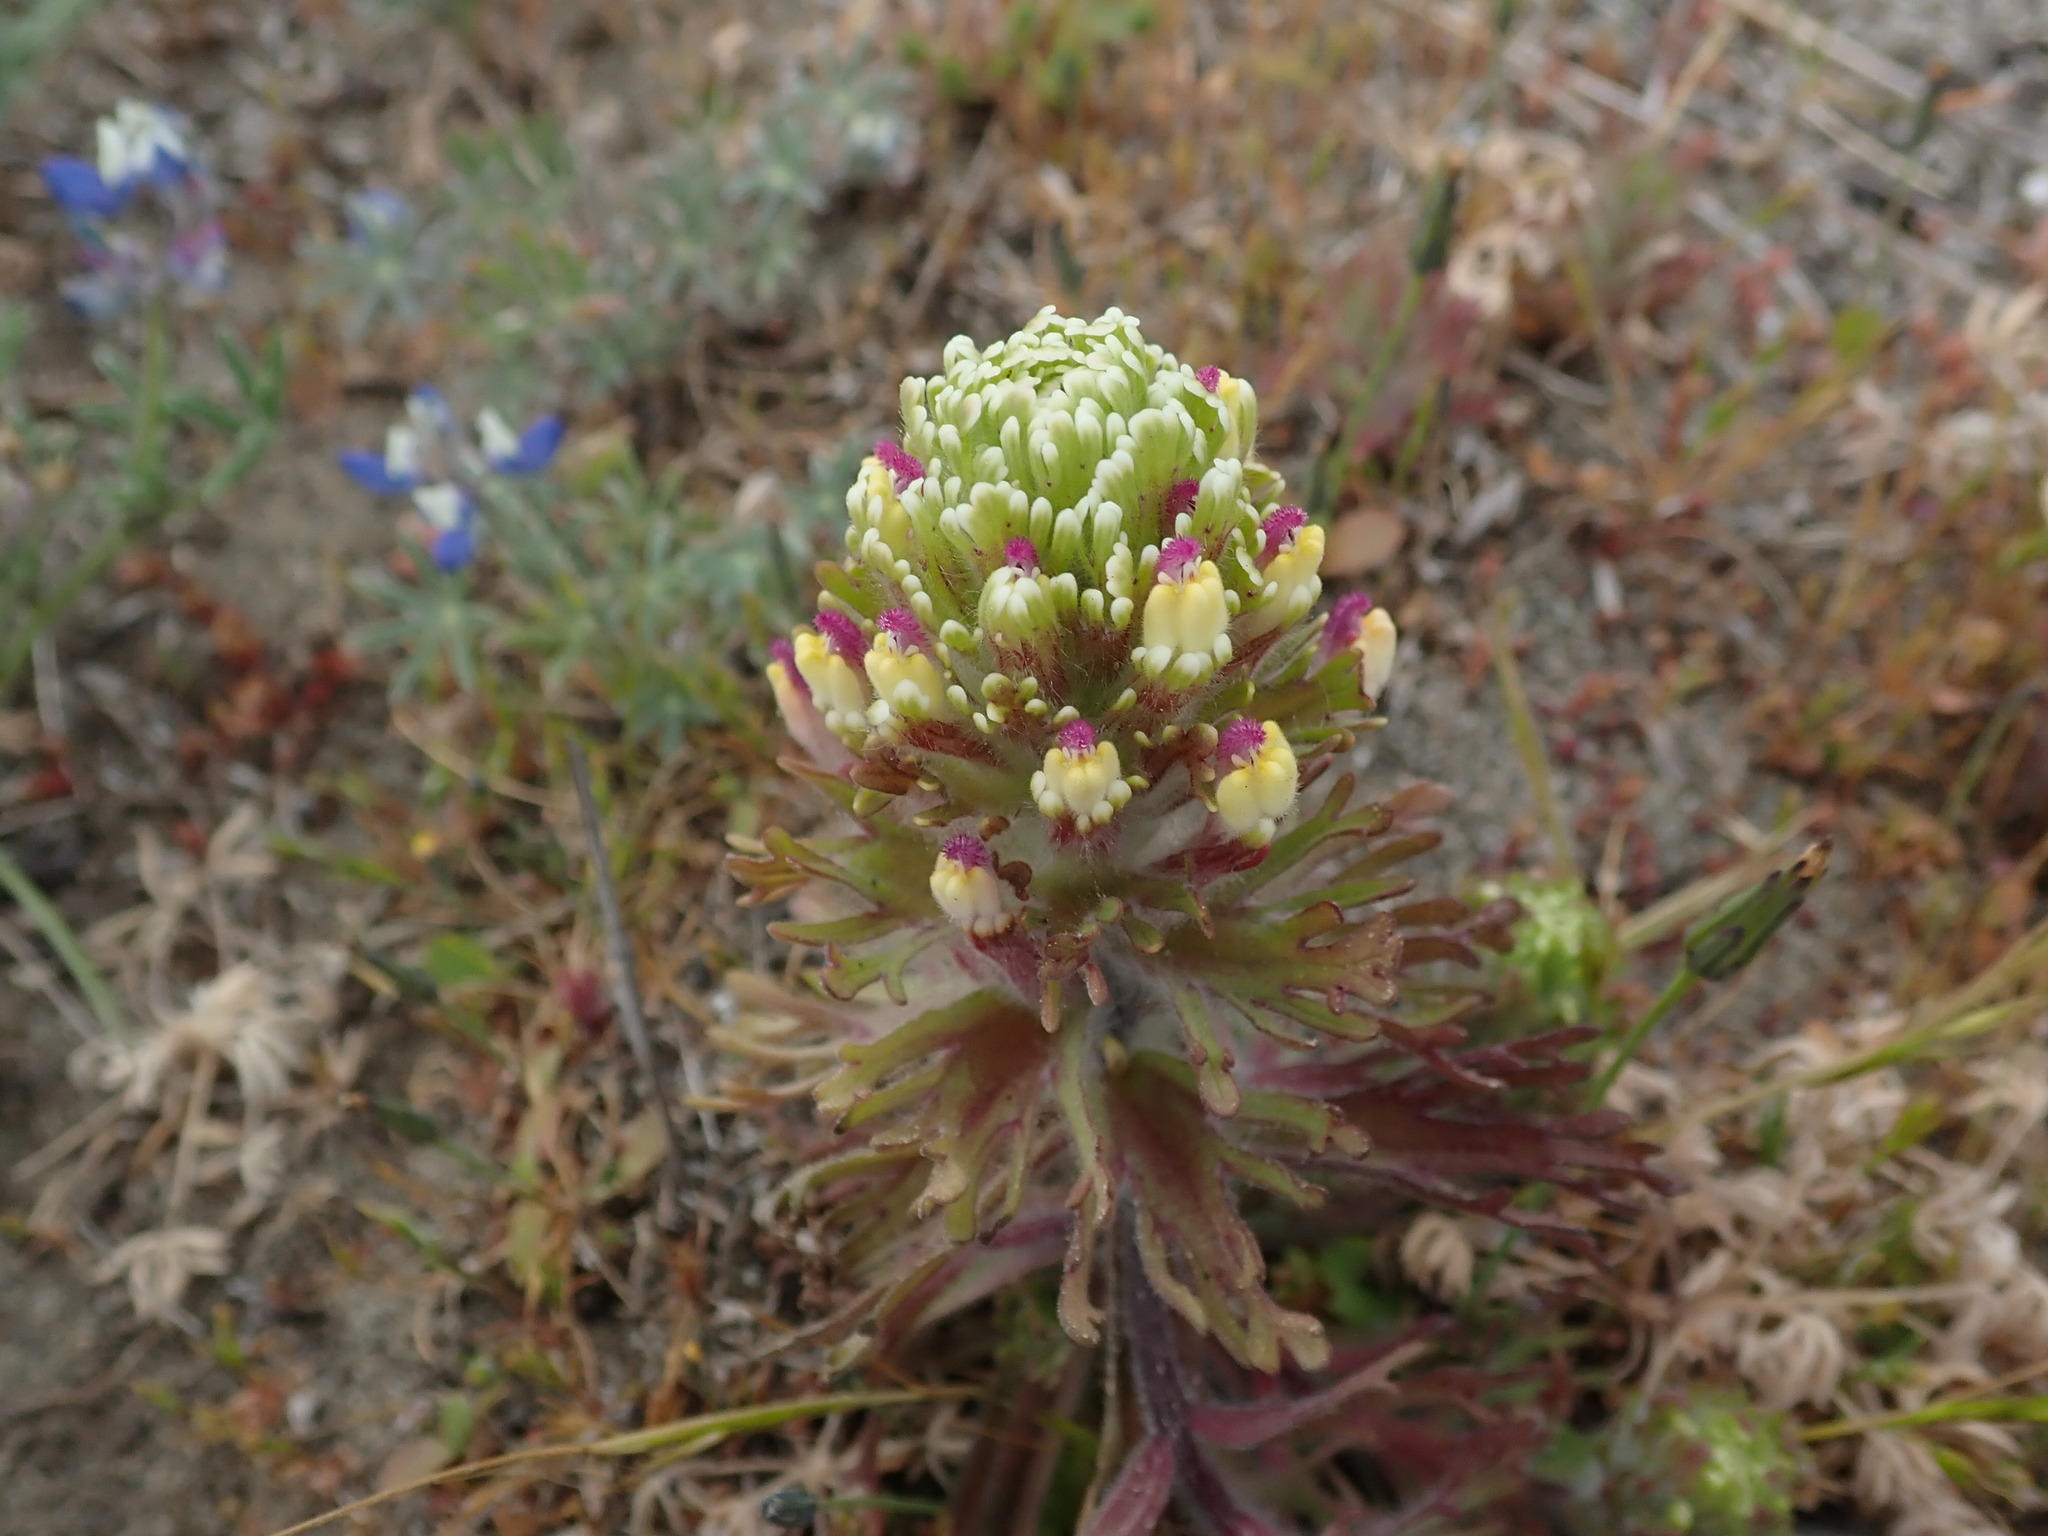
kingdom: Plantae
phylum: Tracheophyta
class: Magnoliopsida
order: Lamiales
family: Orobanchaceae
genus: Castilleja
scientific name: Castilleja exserta
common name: Purple owl-clover
